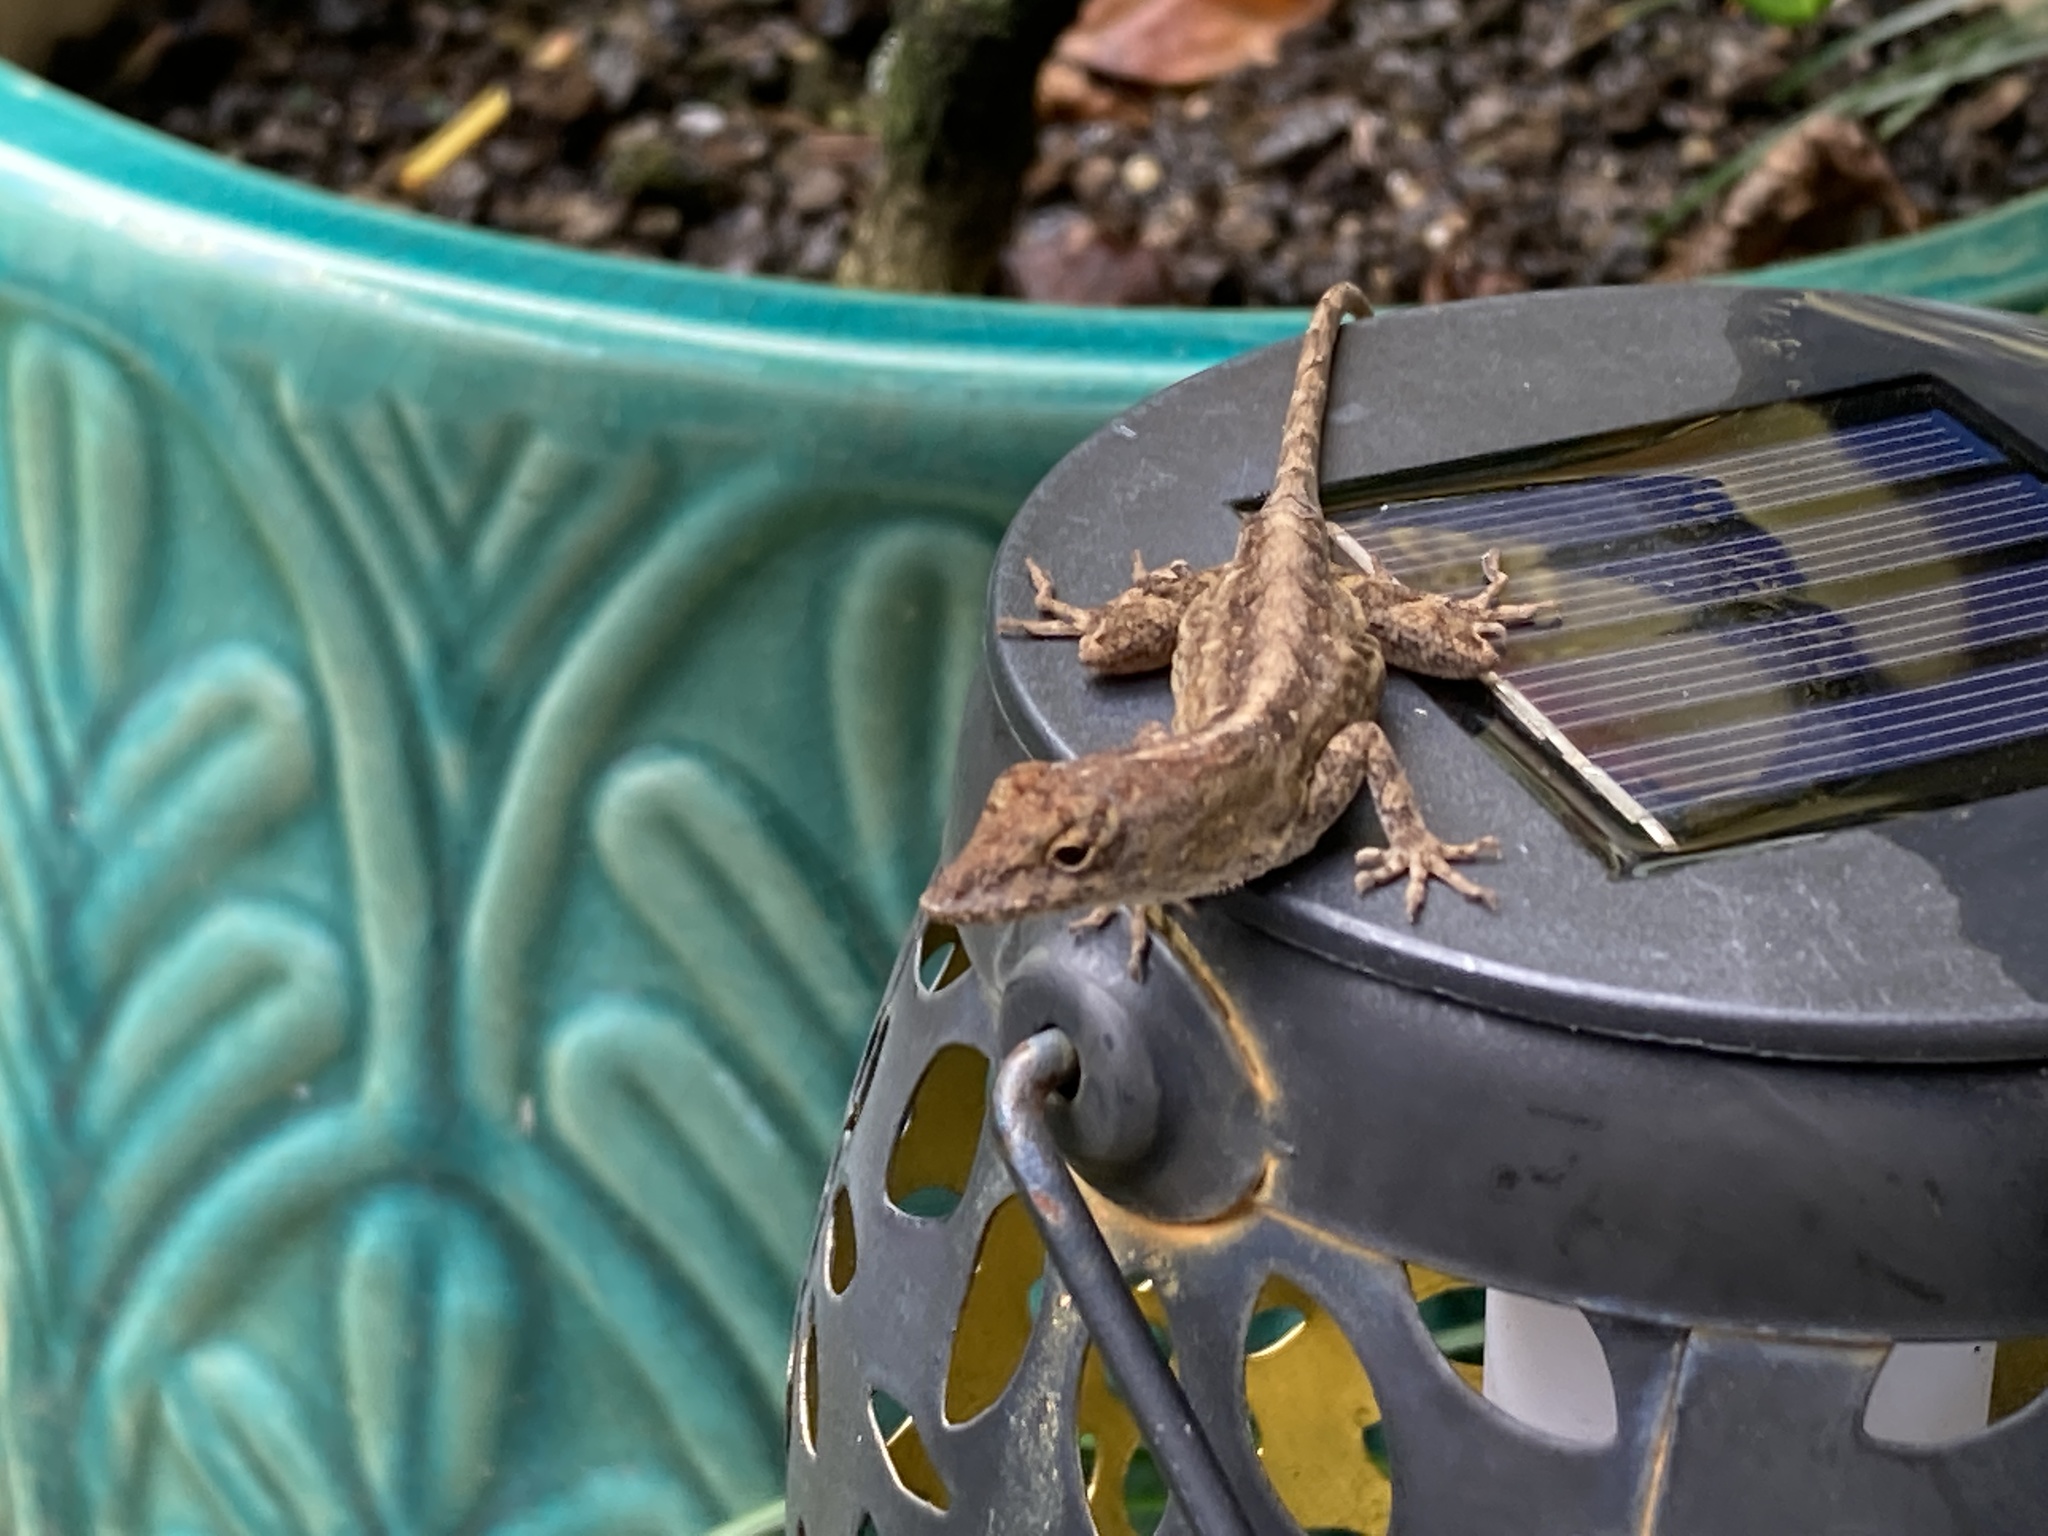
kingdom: Animalia
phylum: Chordata
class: Squamata
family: Dactyloidae
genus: Anolis
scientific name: Anolis sagrei
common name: Brown anole
